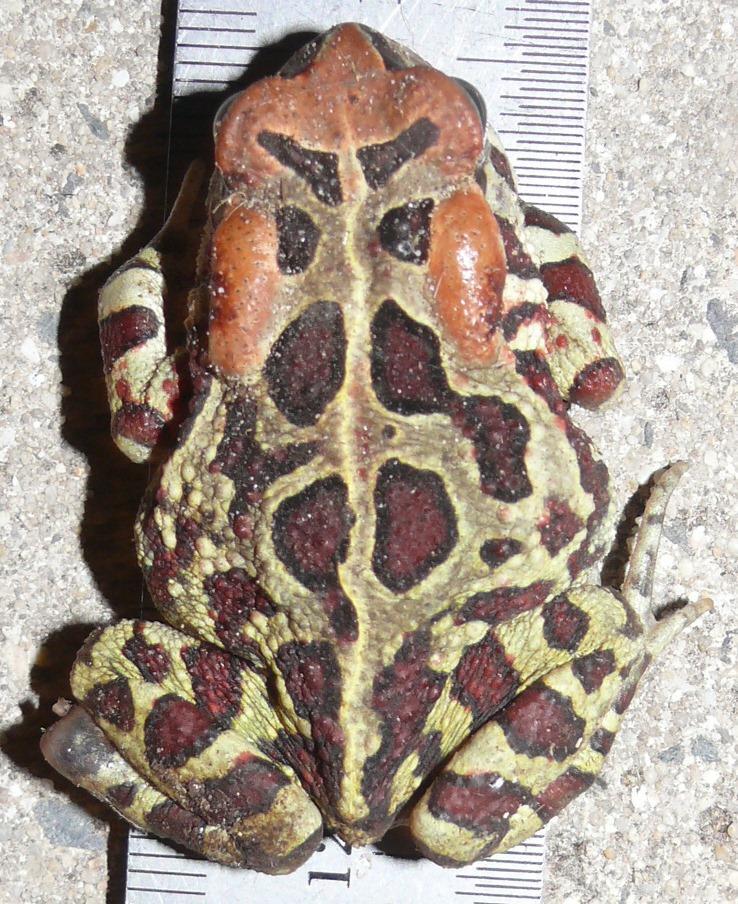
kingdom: Animalia
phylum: Chordata
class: Amphibia
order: Anura
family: Bufonidae
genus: Sclerophrys
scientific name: Sclerophrys pantherina
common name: Panther toad
